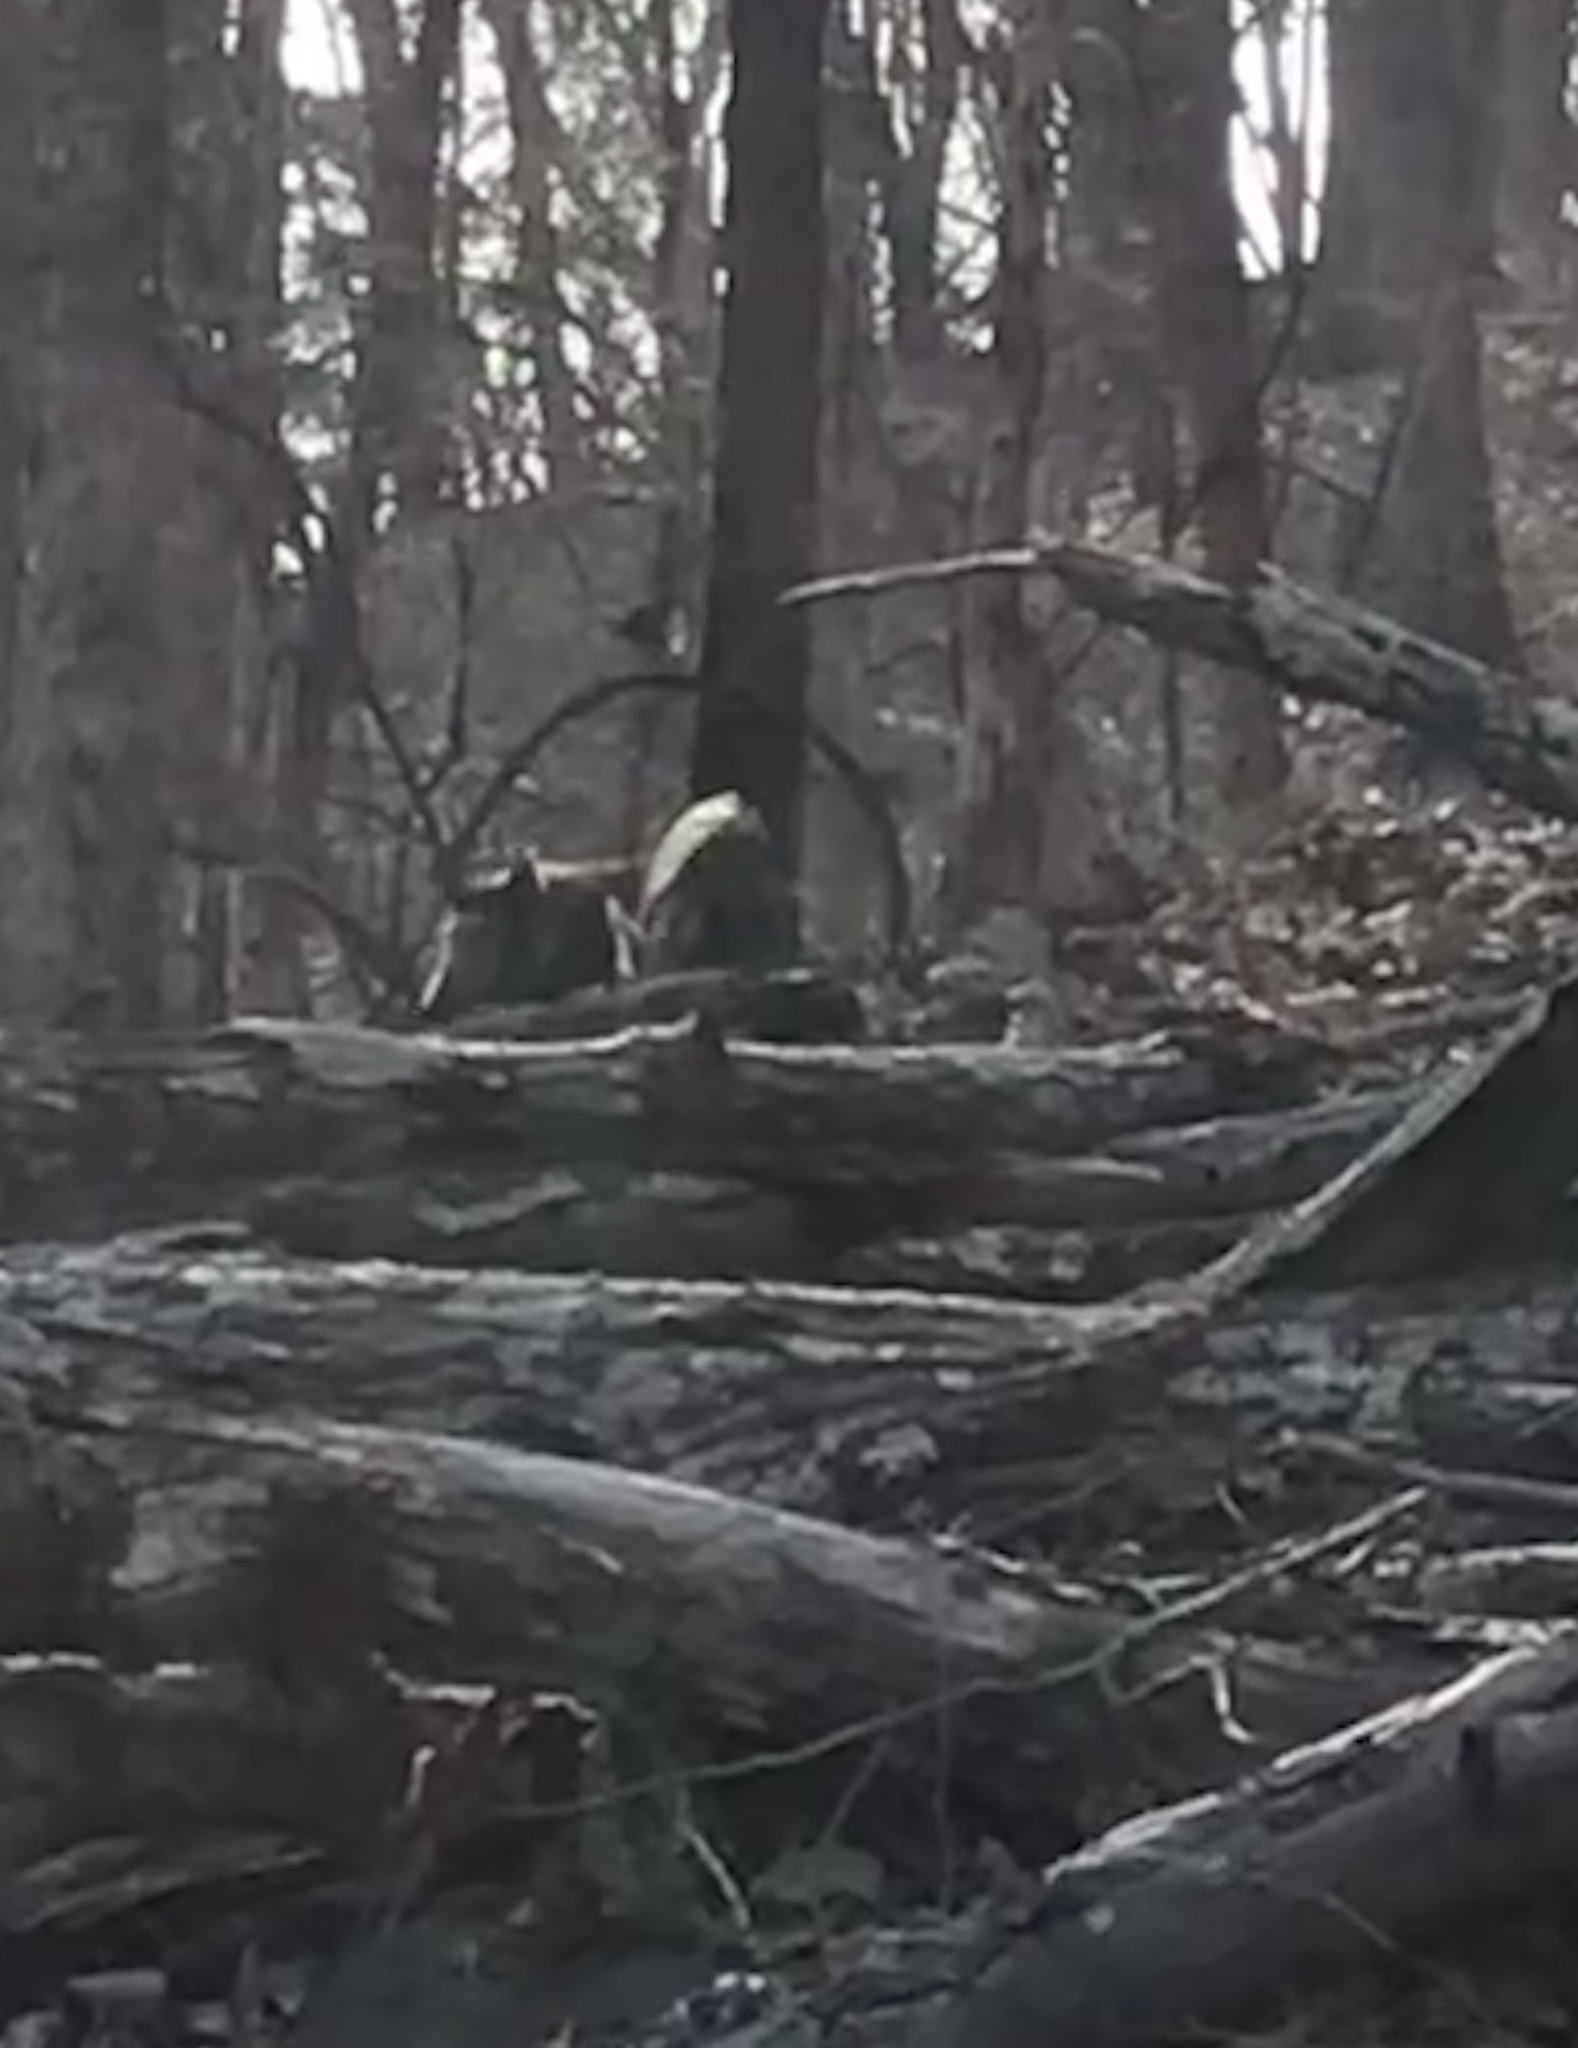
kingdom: Animalia
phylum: Chordata
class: Mammalia
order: Artiodactyla
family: Suidae
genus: Sus
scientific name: Sus scrofa
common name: Wild boar
